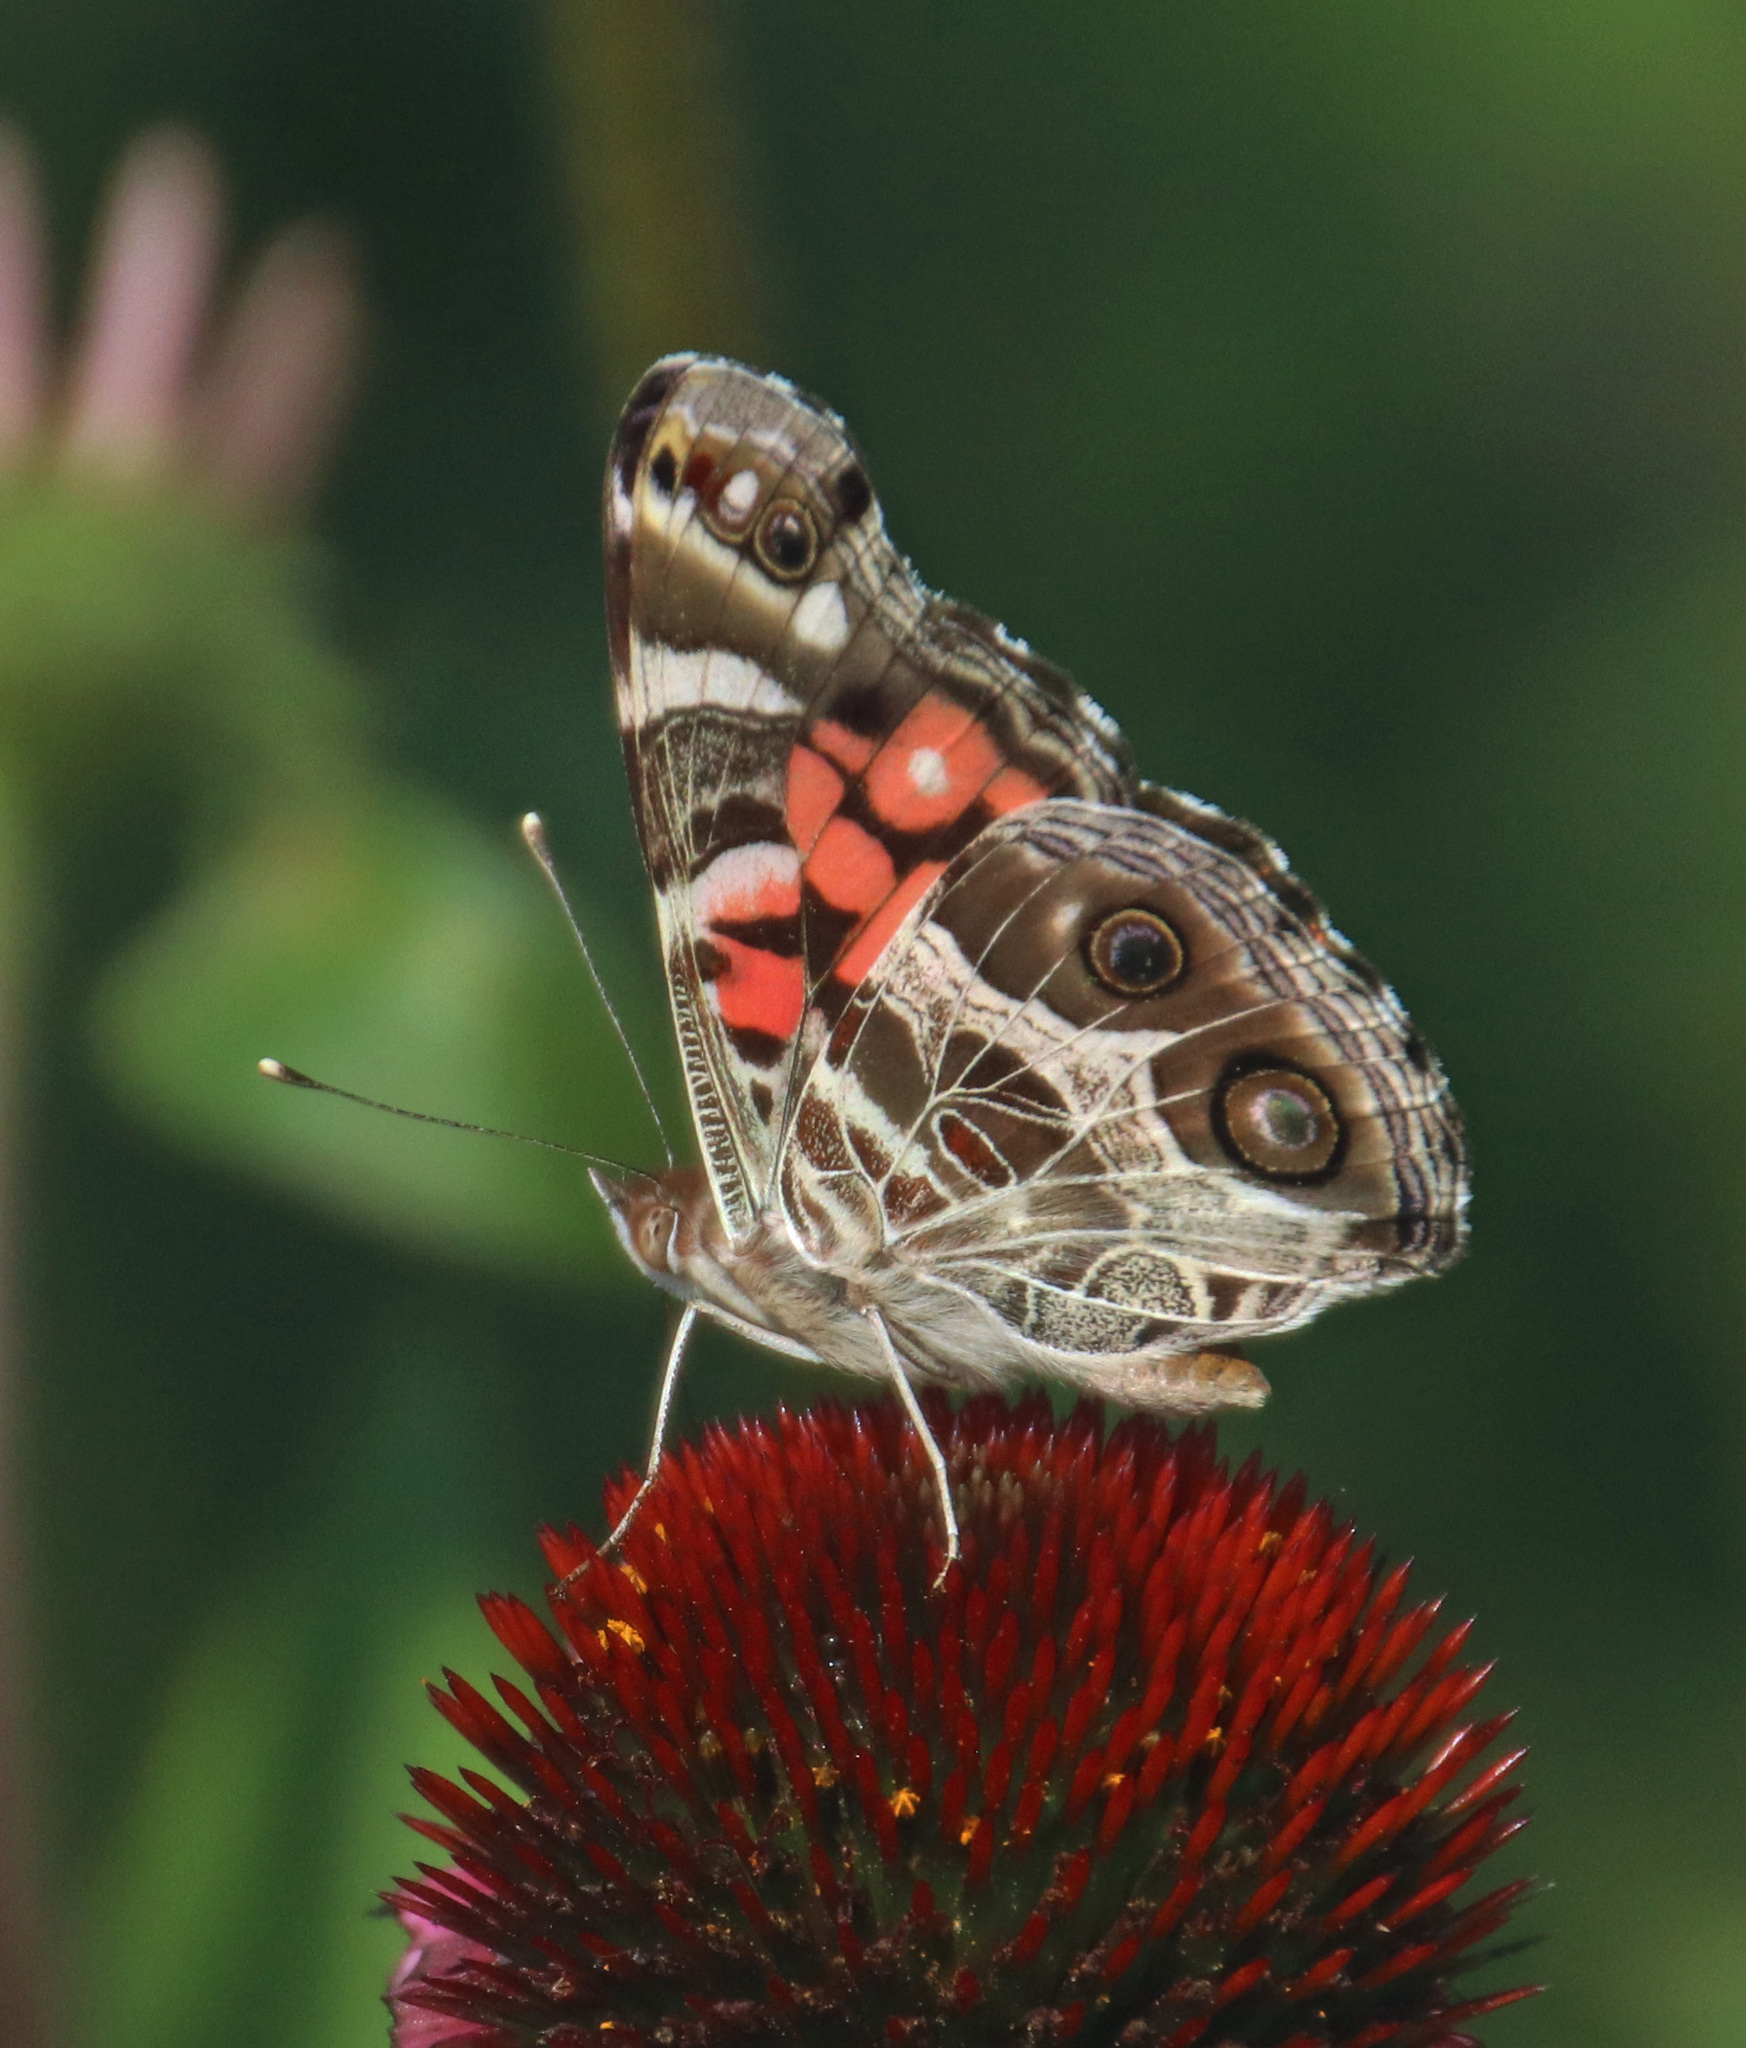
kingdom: Animalia
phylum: Arthropoda
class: Insecta
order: Lepidoptera
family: Nymphalidae
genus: Vanessa
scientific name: Vanessa virginiensis
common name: American lady
